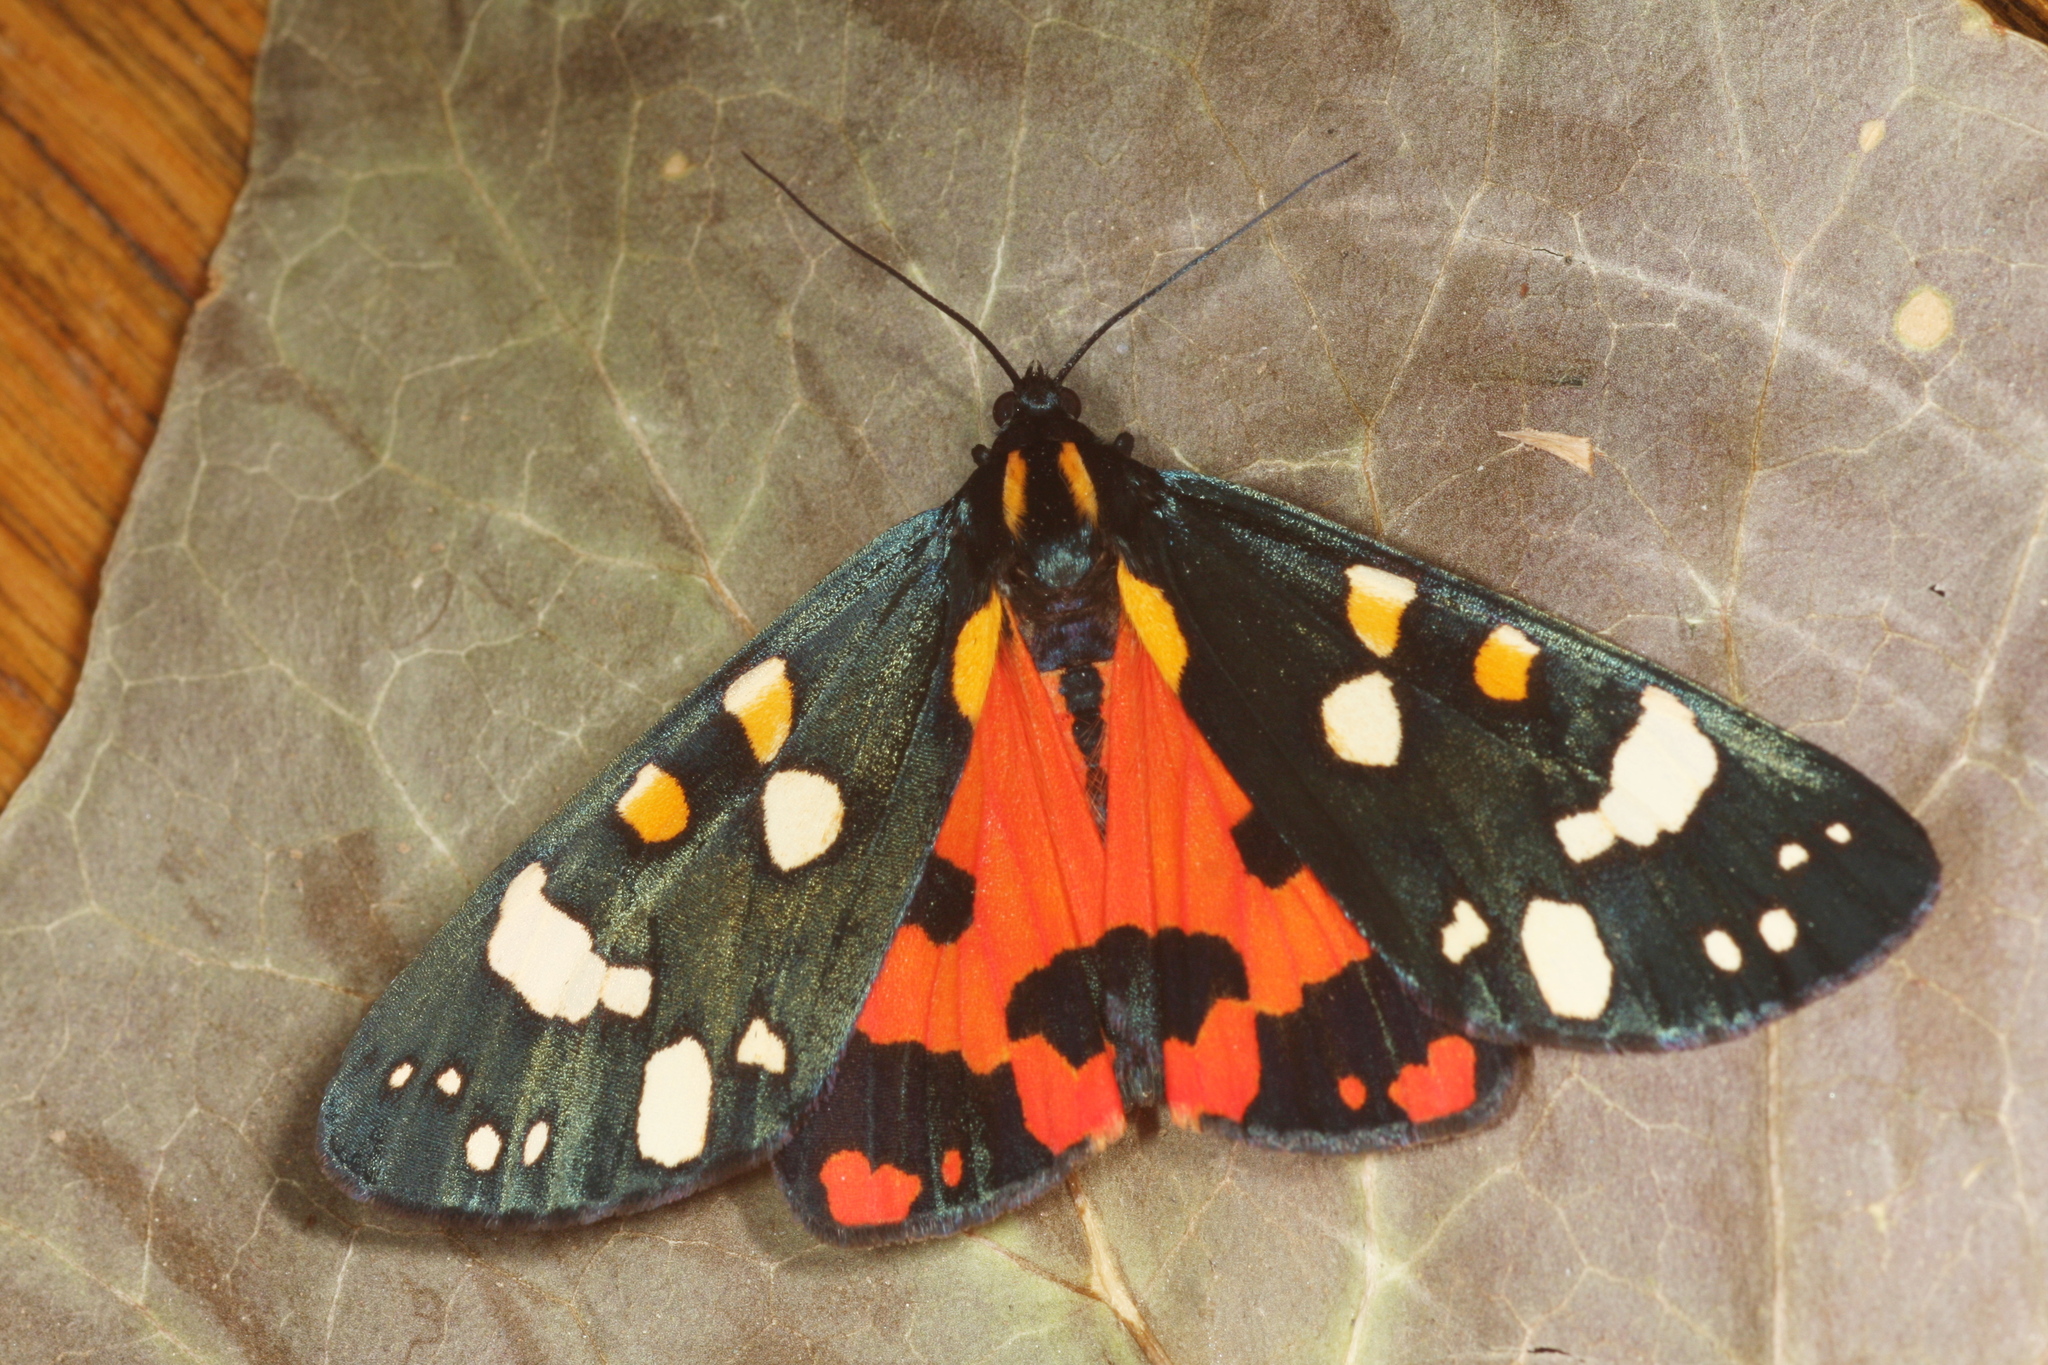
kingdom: Animalia
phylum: Arthropoda
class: Insecta
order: Lepidoptera
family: Erebidae
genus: Callimorpha
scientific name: Callimorpha dominula
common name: Scarlet tiger
